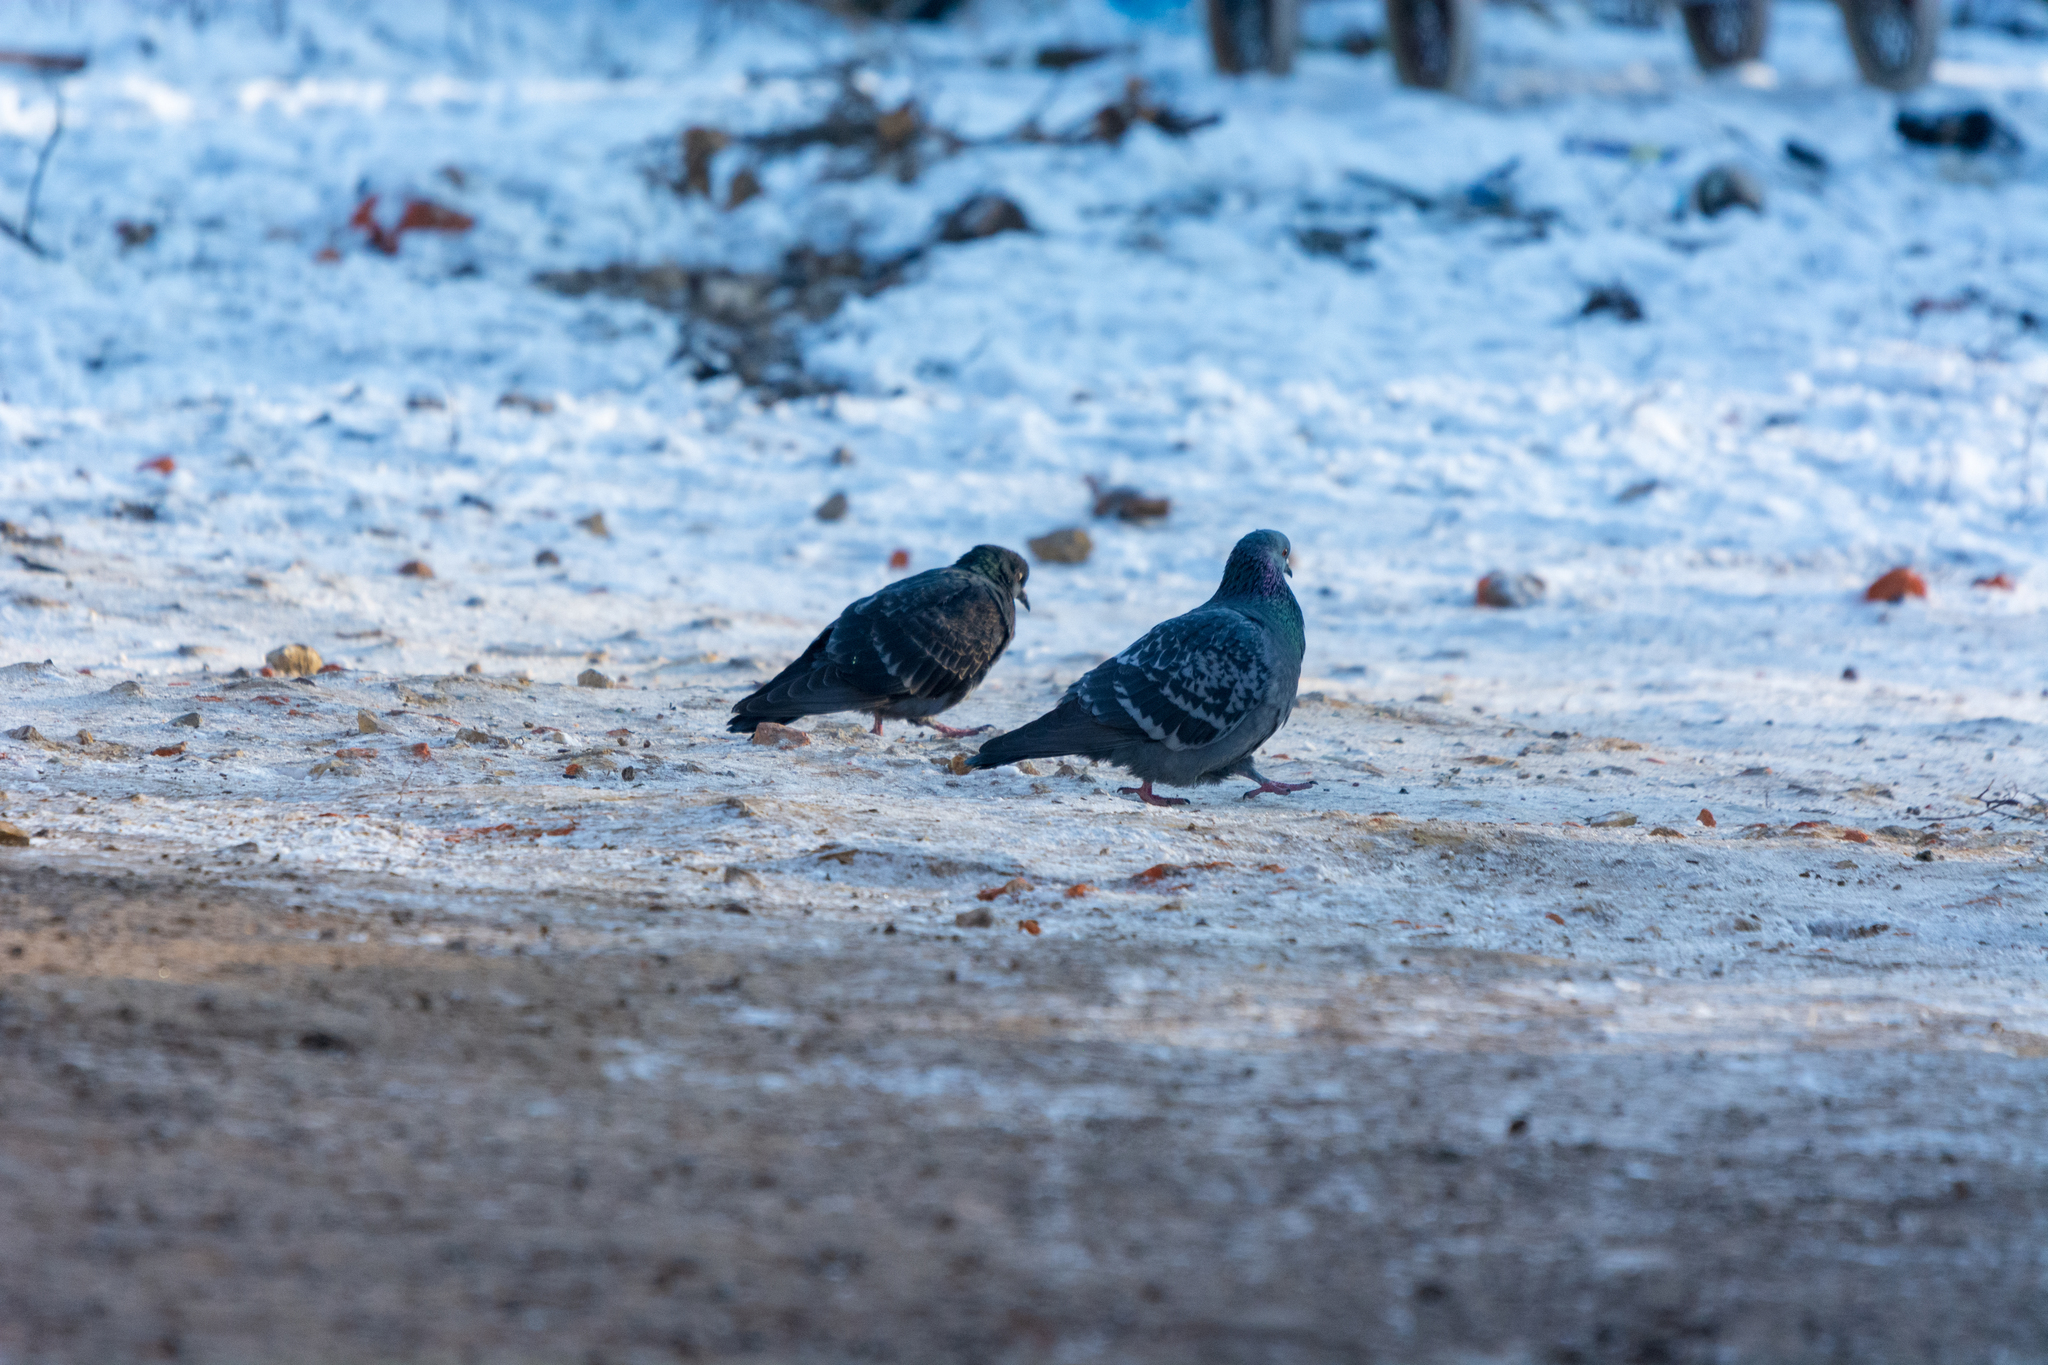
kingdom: Animalia
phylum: Chordata
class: Aves
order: Columbiformes
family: Columbidae
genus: Columba
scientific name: Columba livia
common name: Rock pigeon
